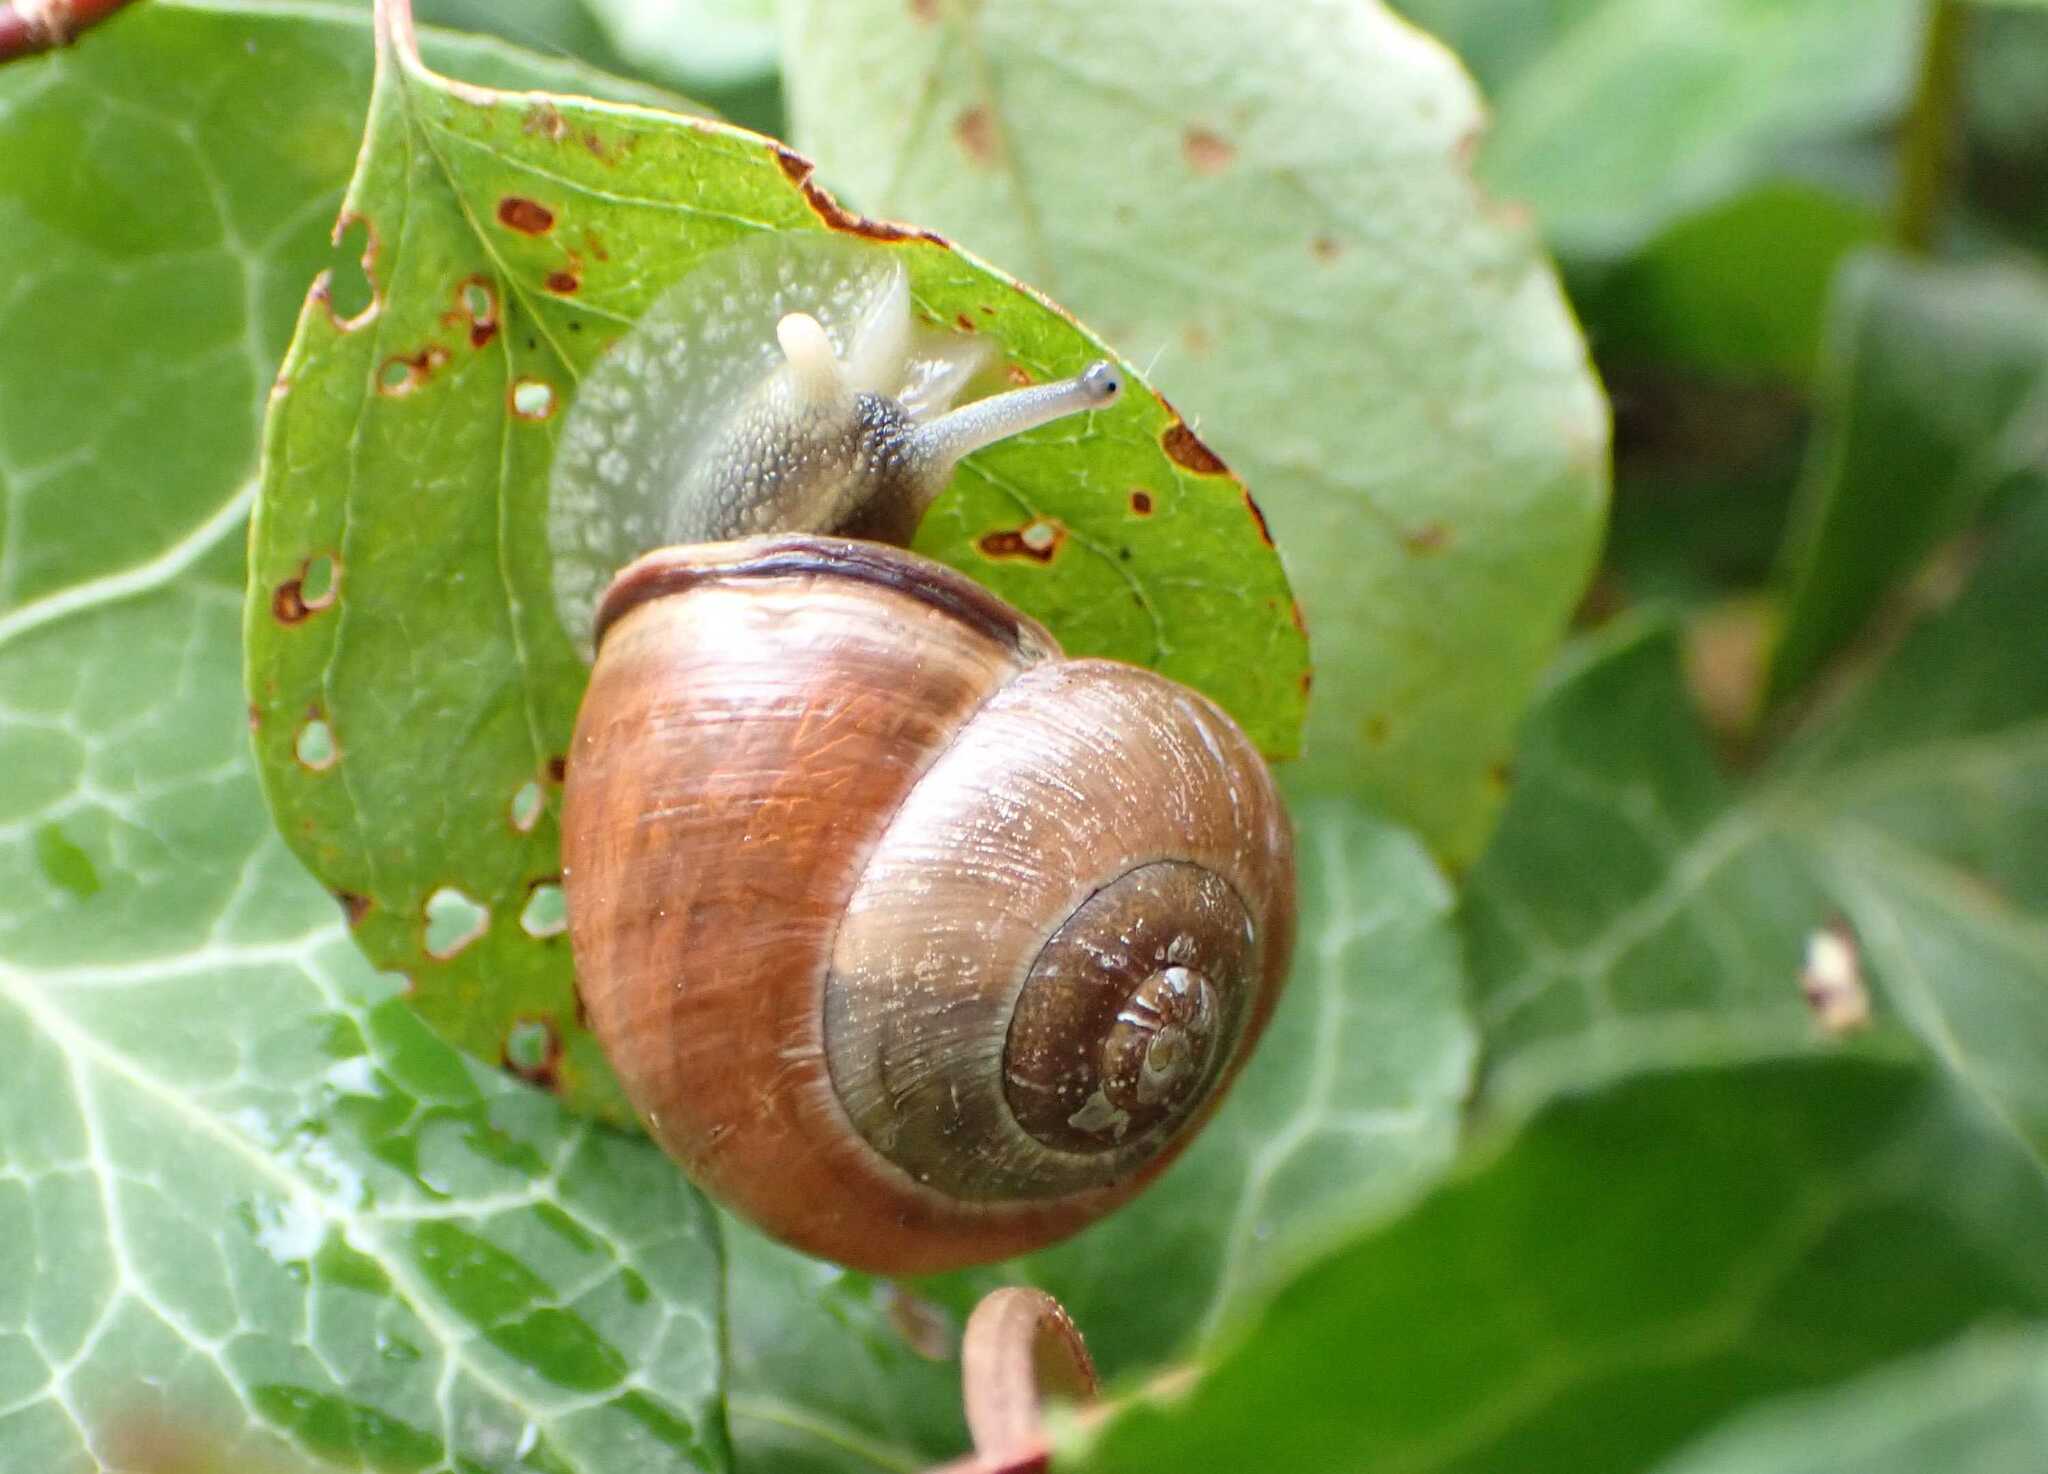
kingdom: Animalia
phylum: Mollusca
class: Gastropoda
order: Stylommatophora
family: Helicidae
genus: Cepaea
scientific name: Cepaea nemoralis
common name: Grovesnail
